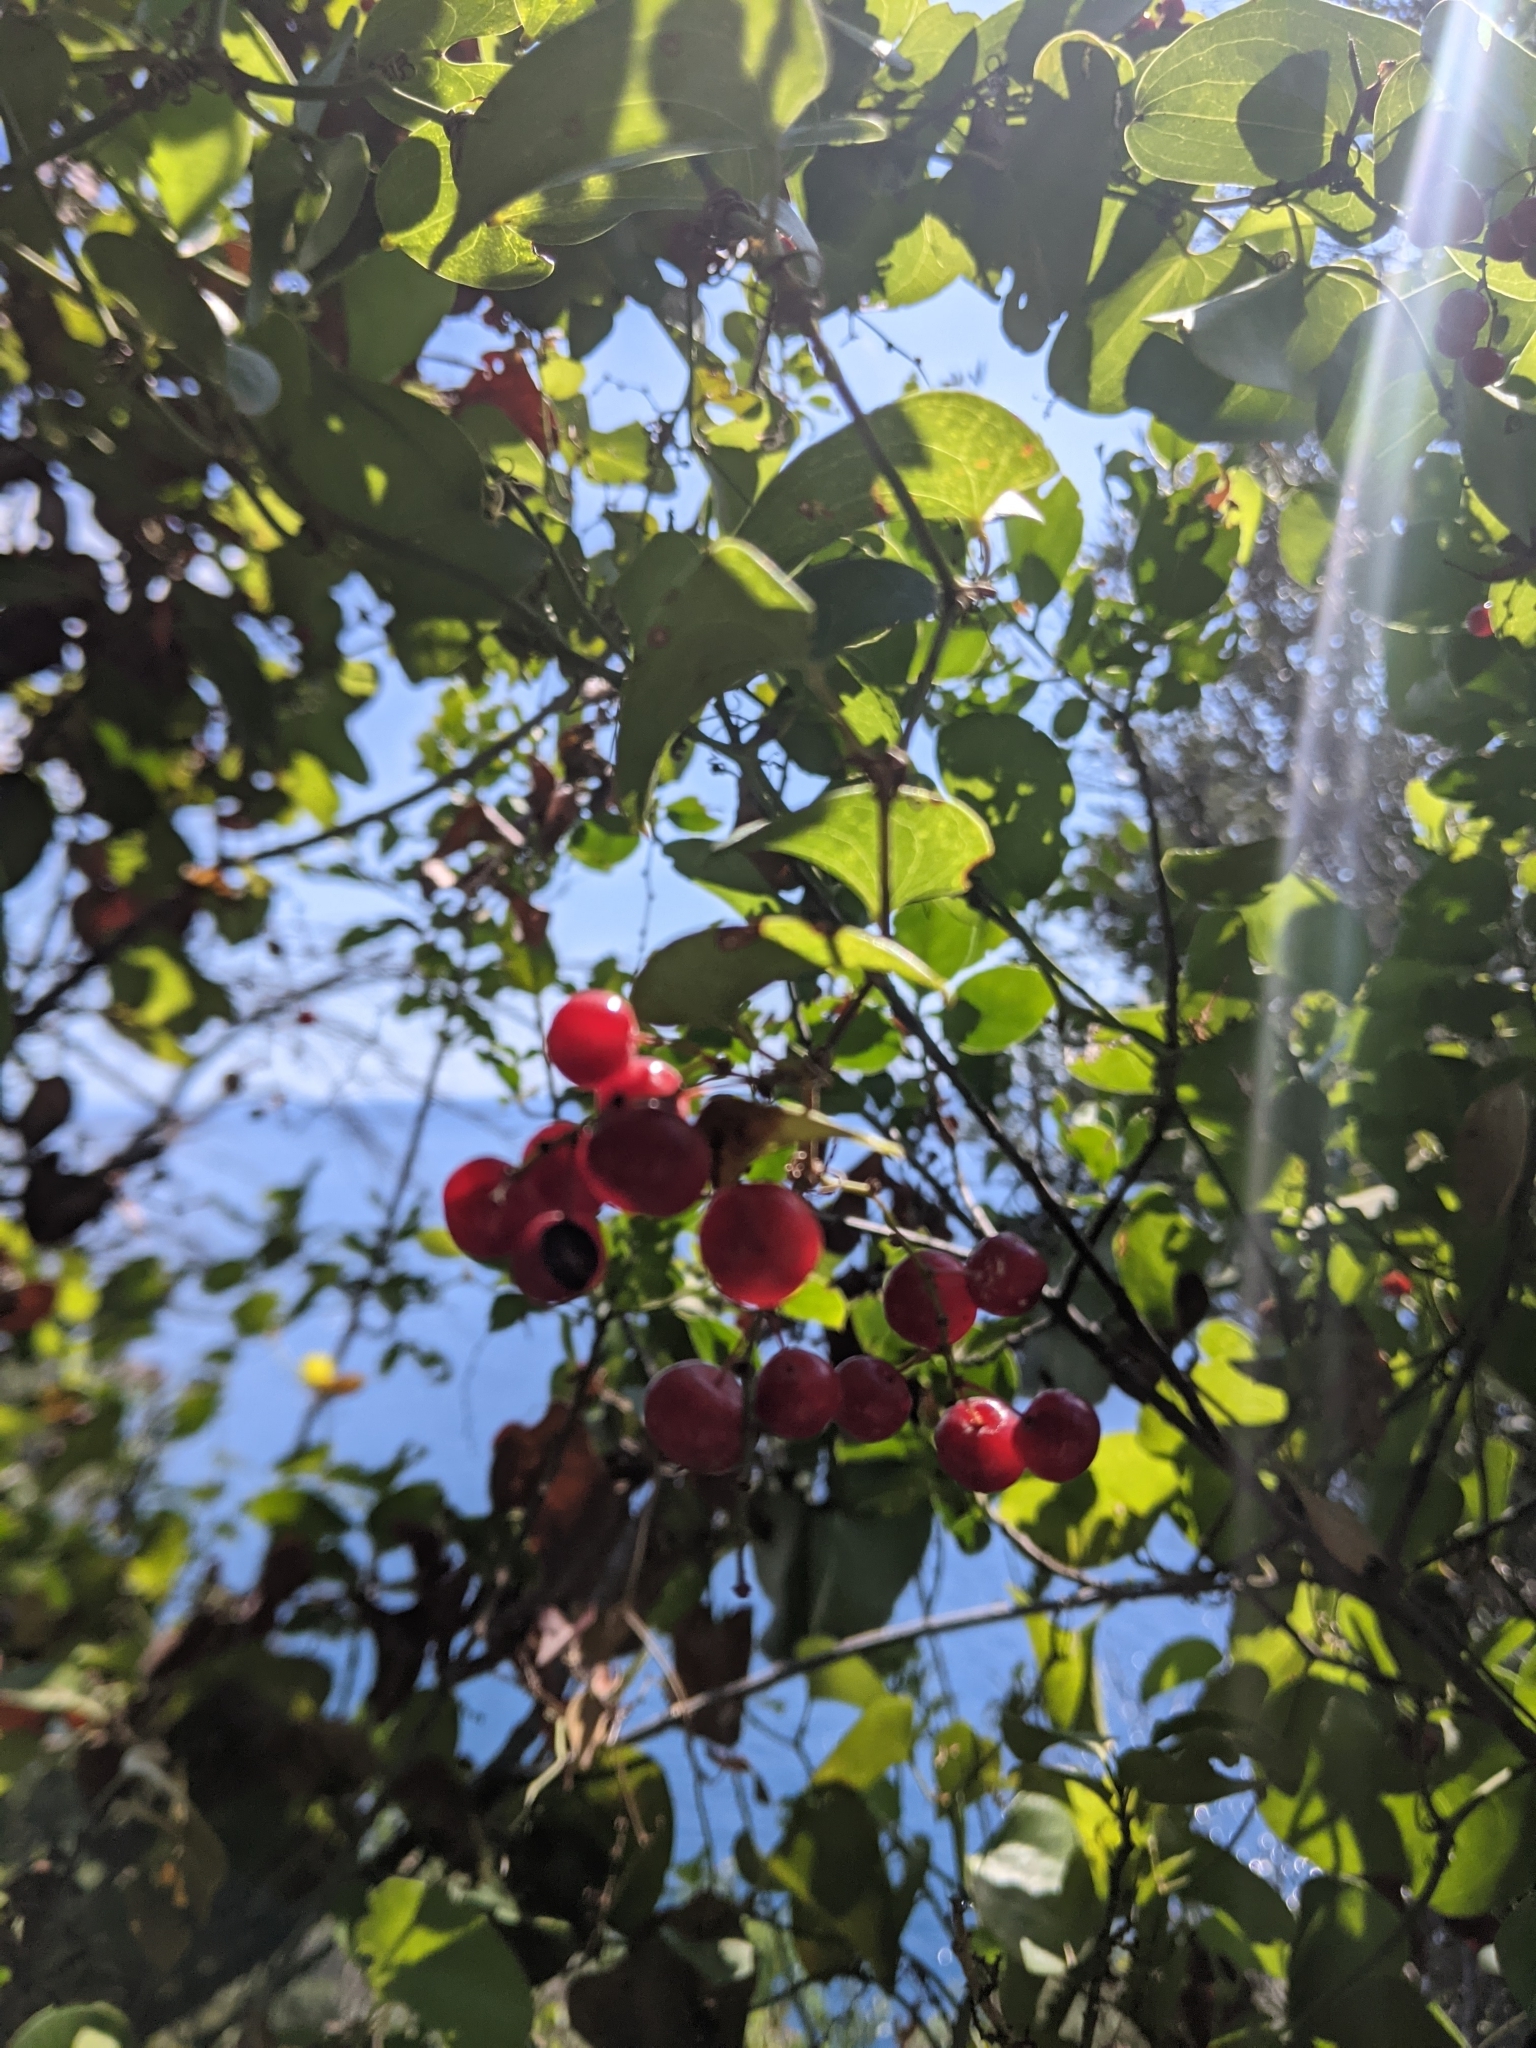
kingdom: Plantae
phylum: Tracheophyta
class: Liliopsida
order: Liliales
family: Smilacaceae
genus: Smilax
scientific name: Smilax aspera
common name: Common smilax
